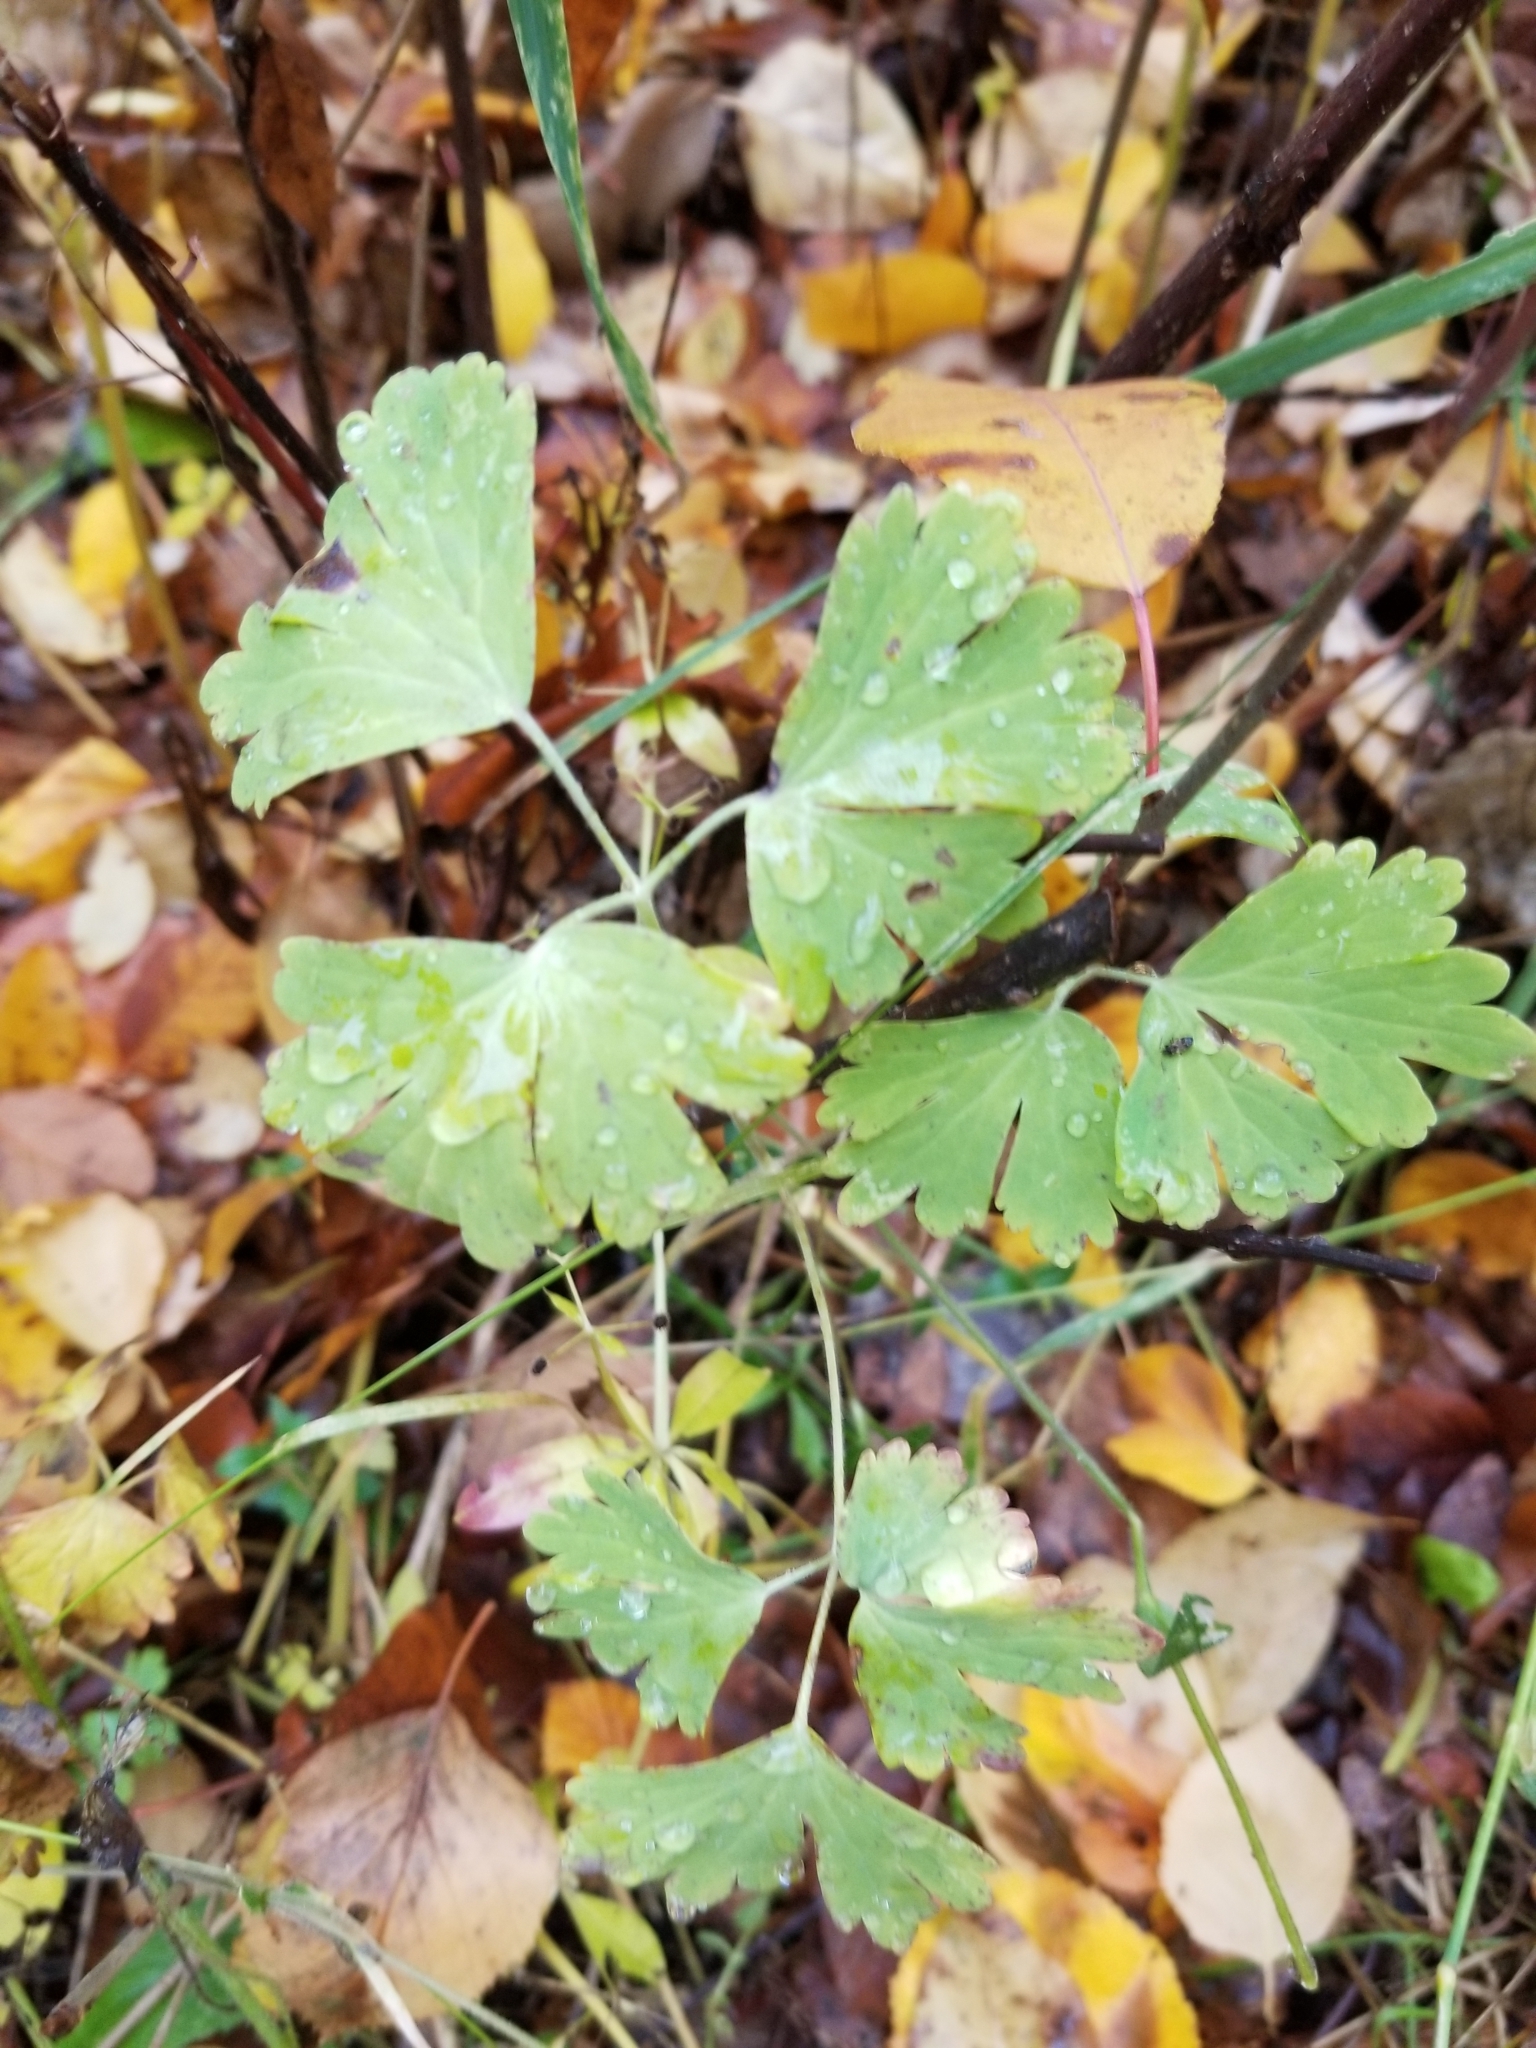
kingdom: Plantae
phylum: Tracheophyta
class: Magnoliopsida
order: Ranunculales
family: Ranunculaceae
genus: Aquilegia
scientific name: Aquilegia formosa
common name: Sitka columbine
